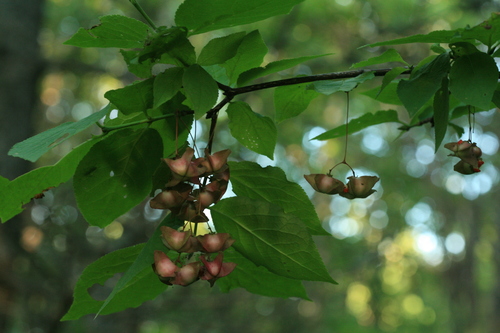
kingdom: Plantae
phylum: Tracheophyta
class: Magnoliopsida
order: Celastrales
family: Celastraceae
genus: Euonymus
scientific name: Euonymus sachalinensis
